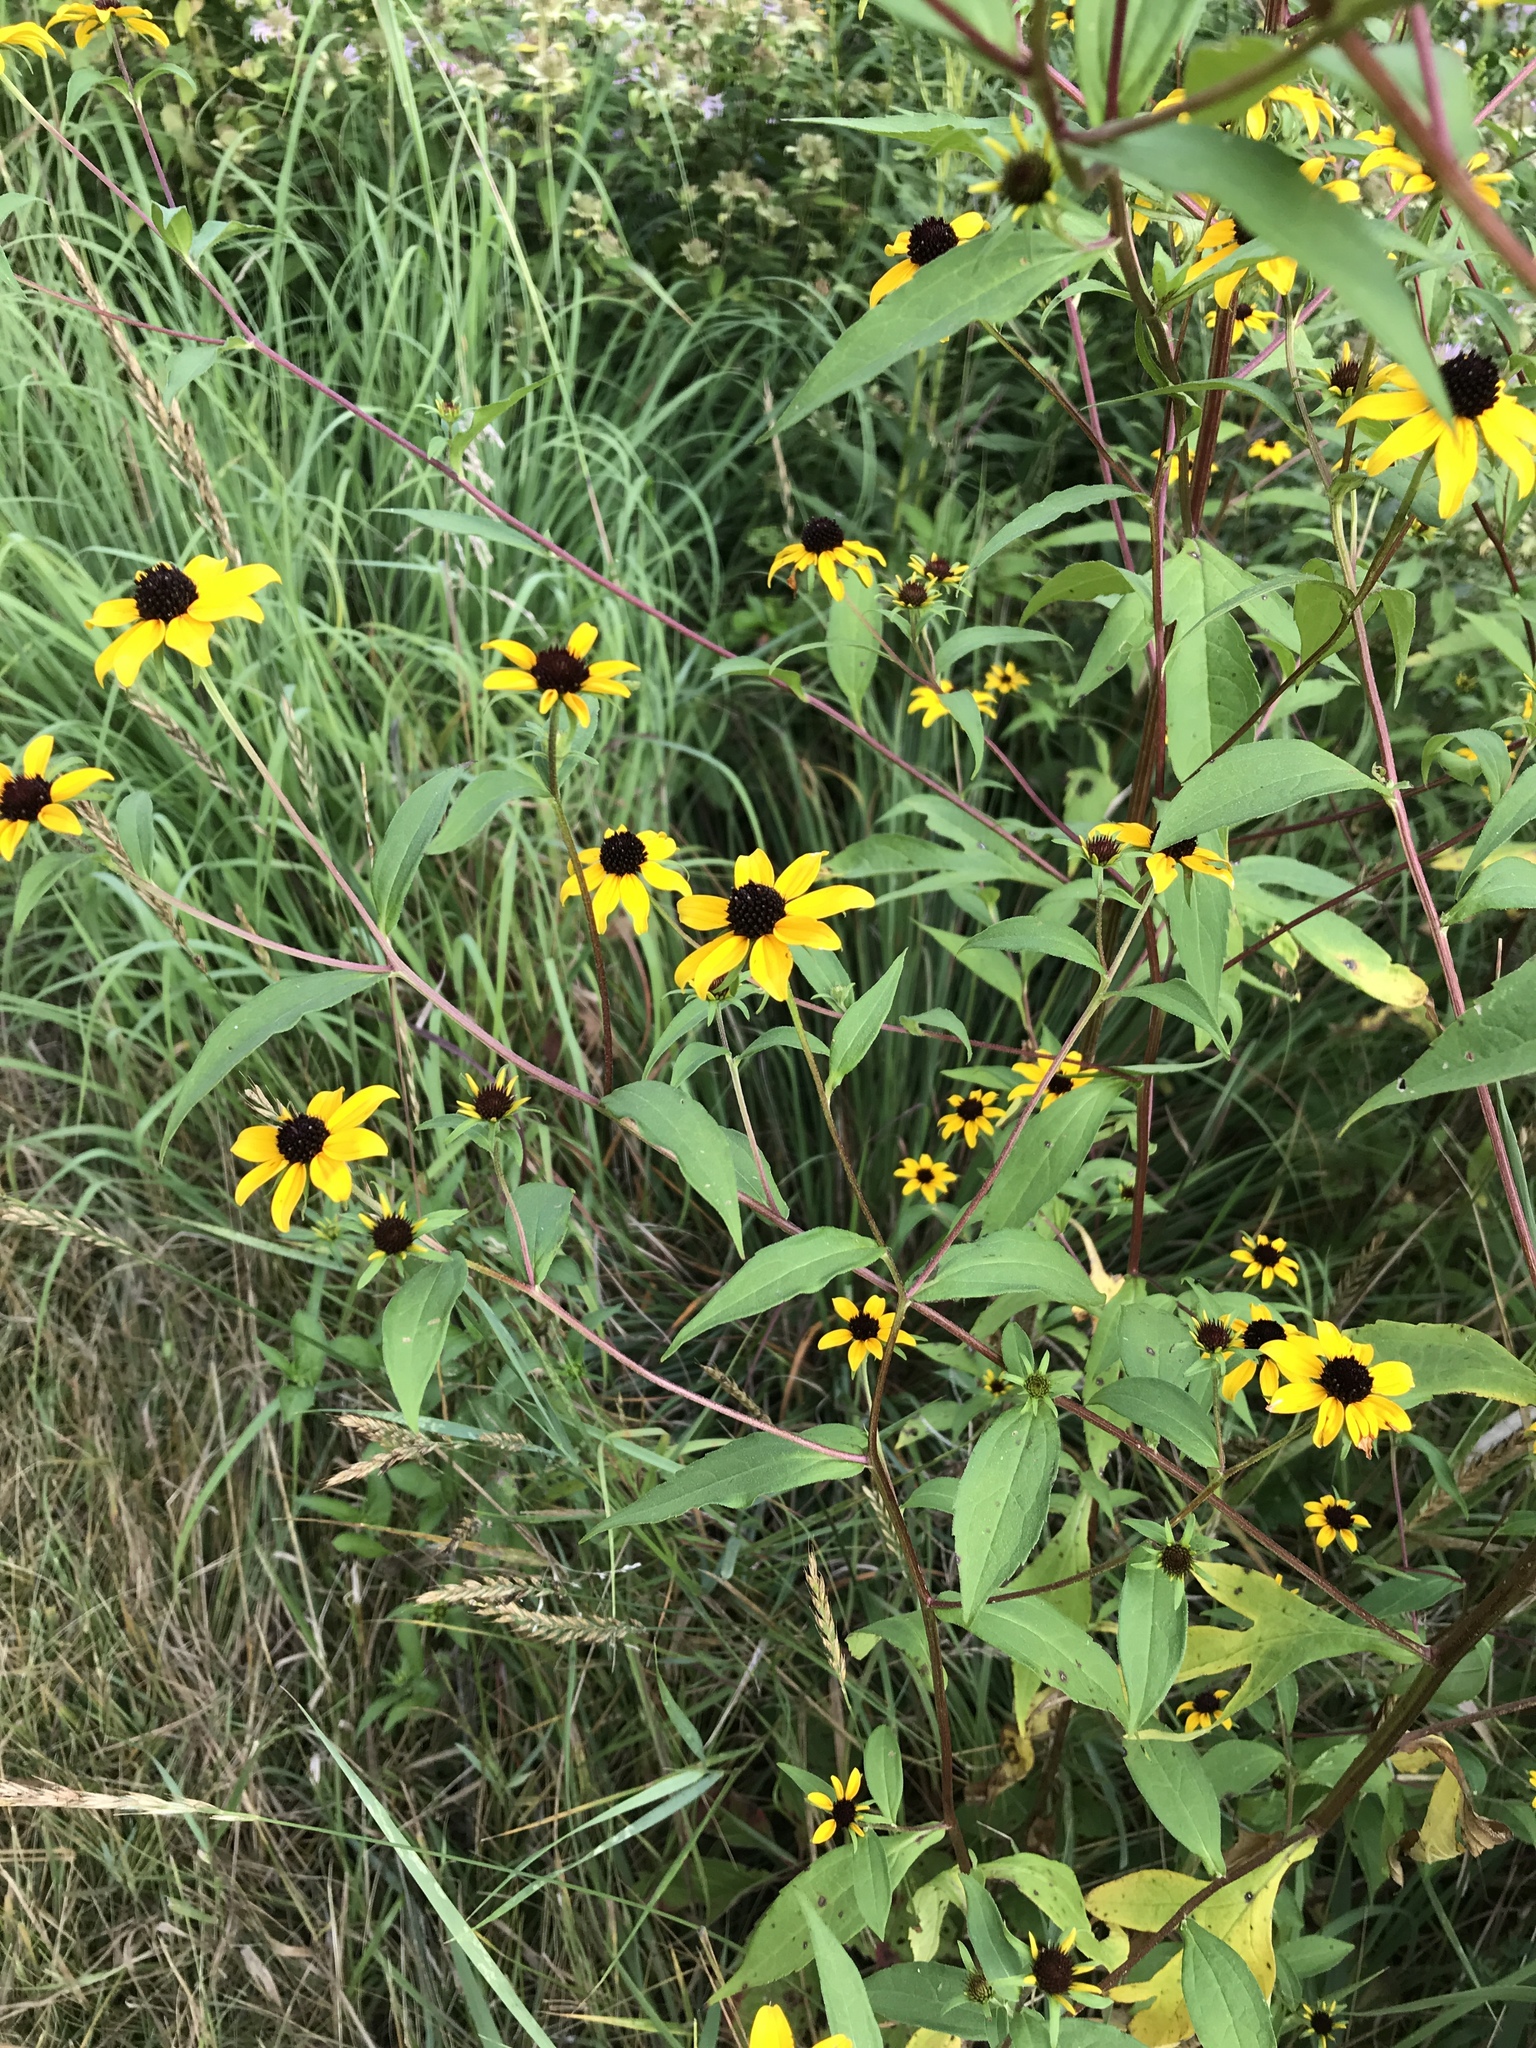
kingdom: Plantae
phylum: Tracheophyta
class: Magnoliopsida
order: Asterales
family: Asteraceae
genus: Rudbeckia
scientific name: Rudbeckia triloba
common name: Thin-leaved coneflower
